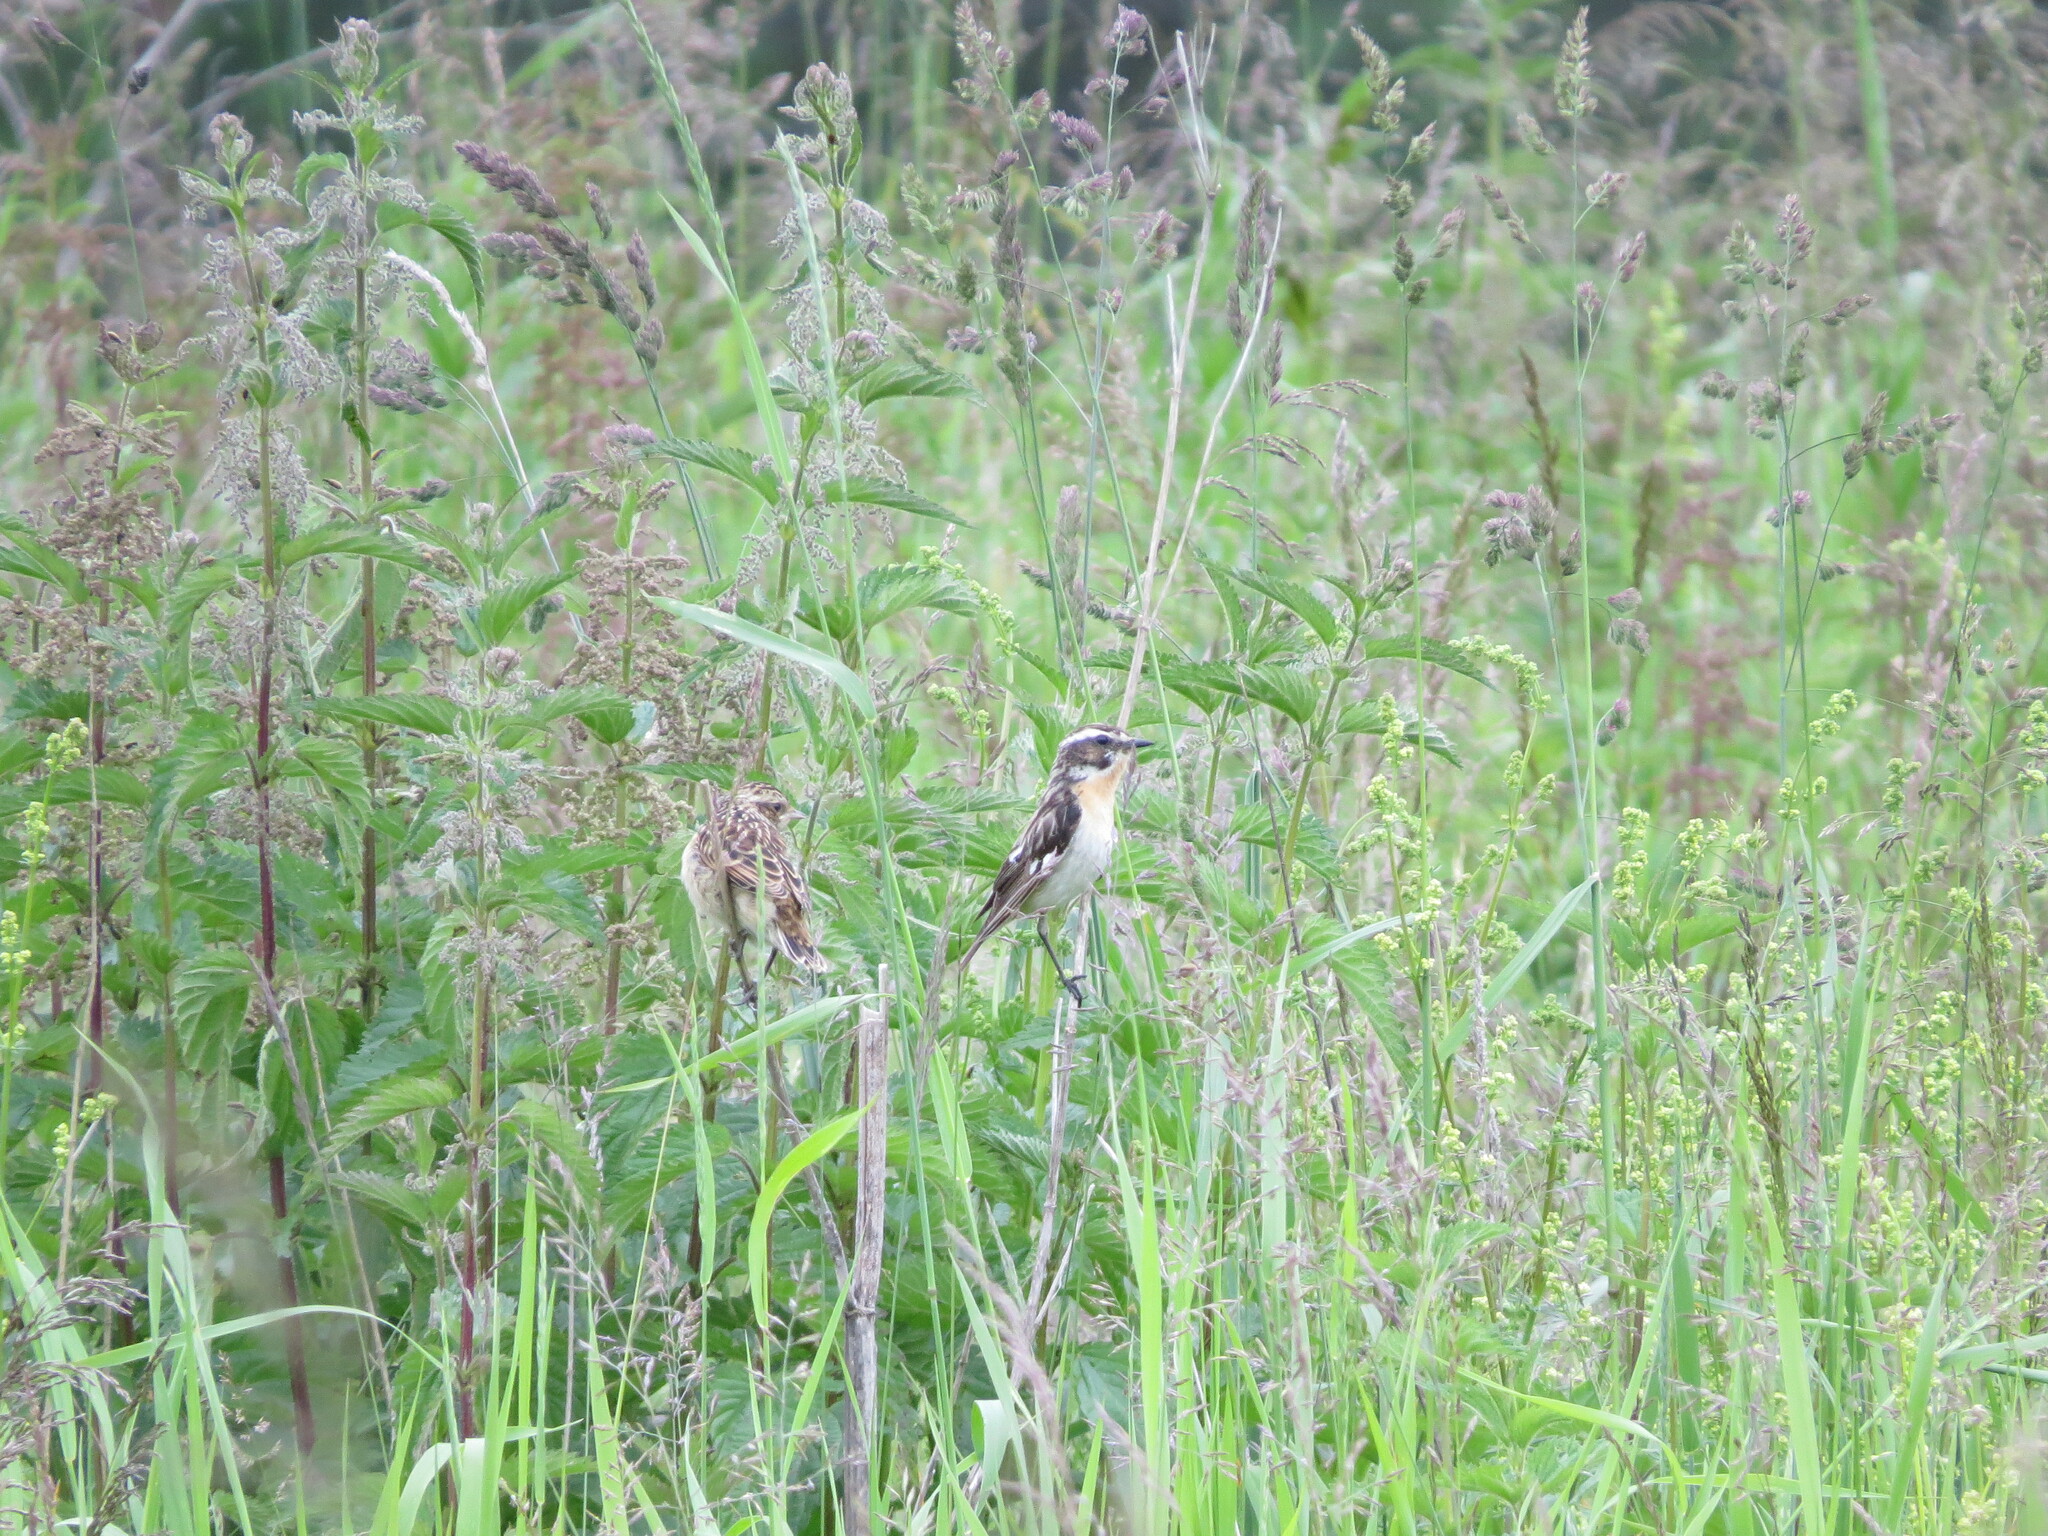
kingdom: Animalia
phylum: Chordata
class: Aves
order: Passeriformes
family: Muscicapidae
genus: Saxicola
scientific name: Saxicola rubetra
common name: Whinchat
